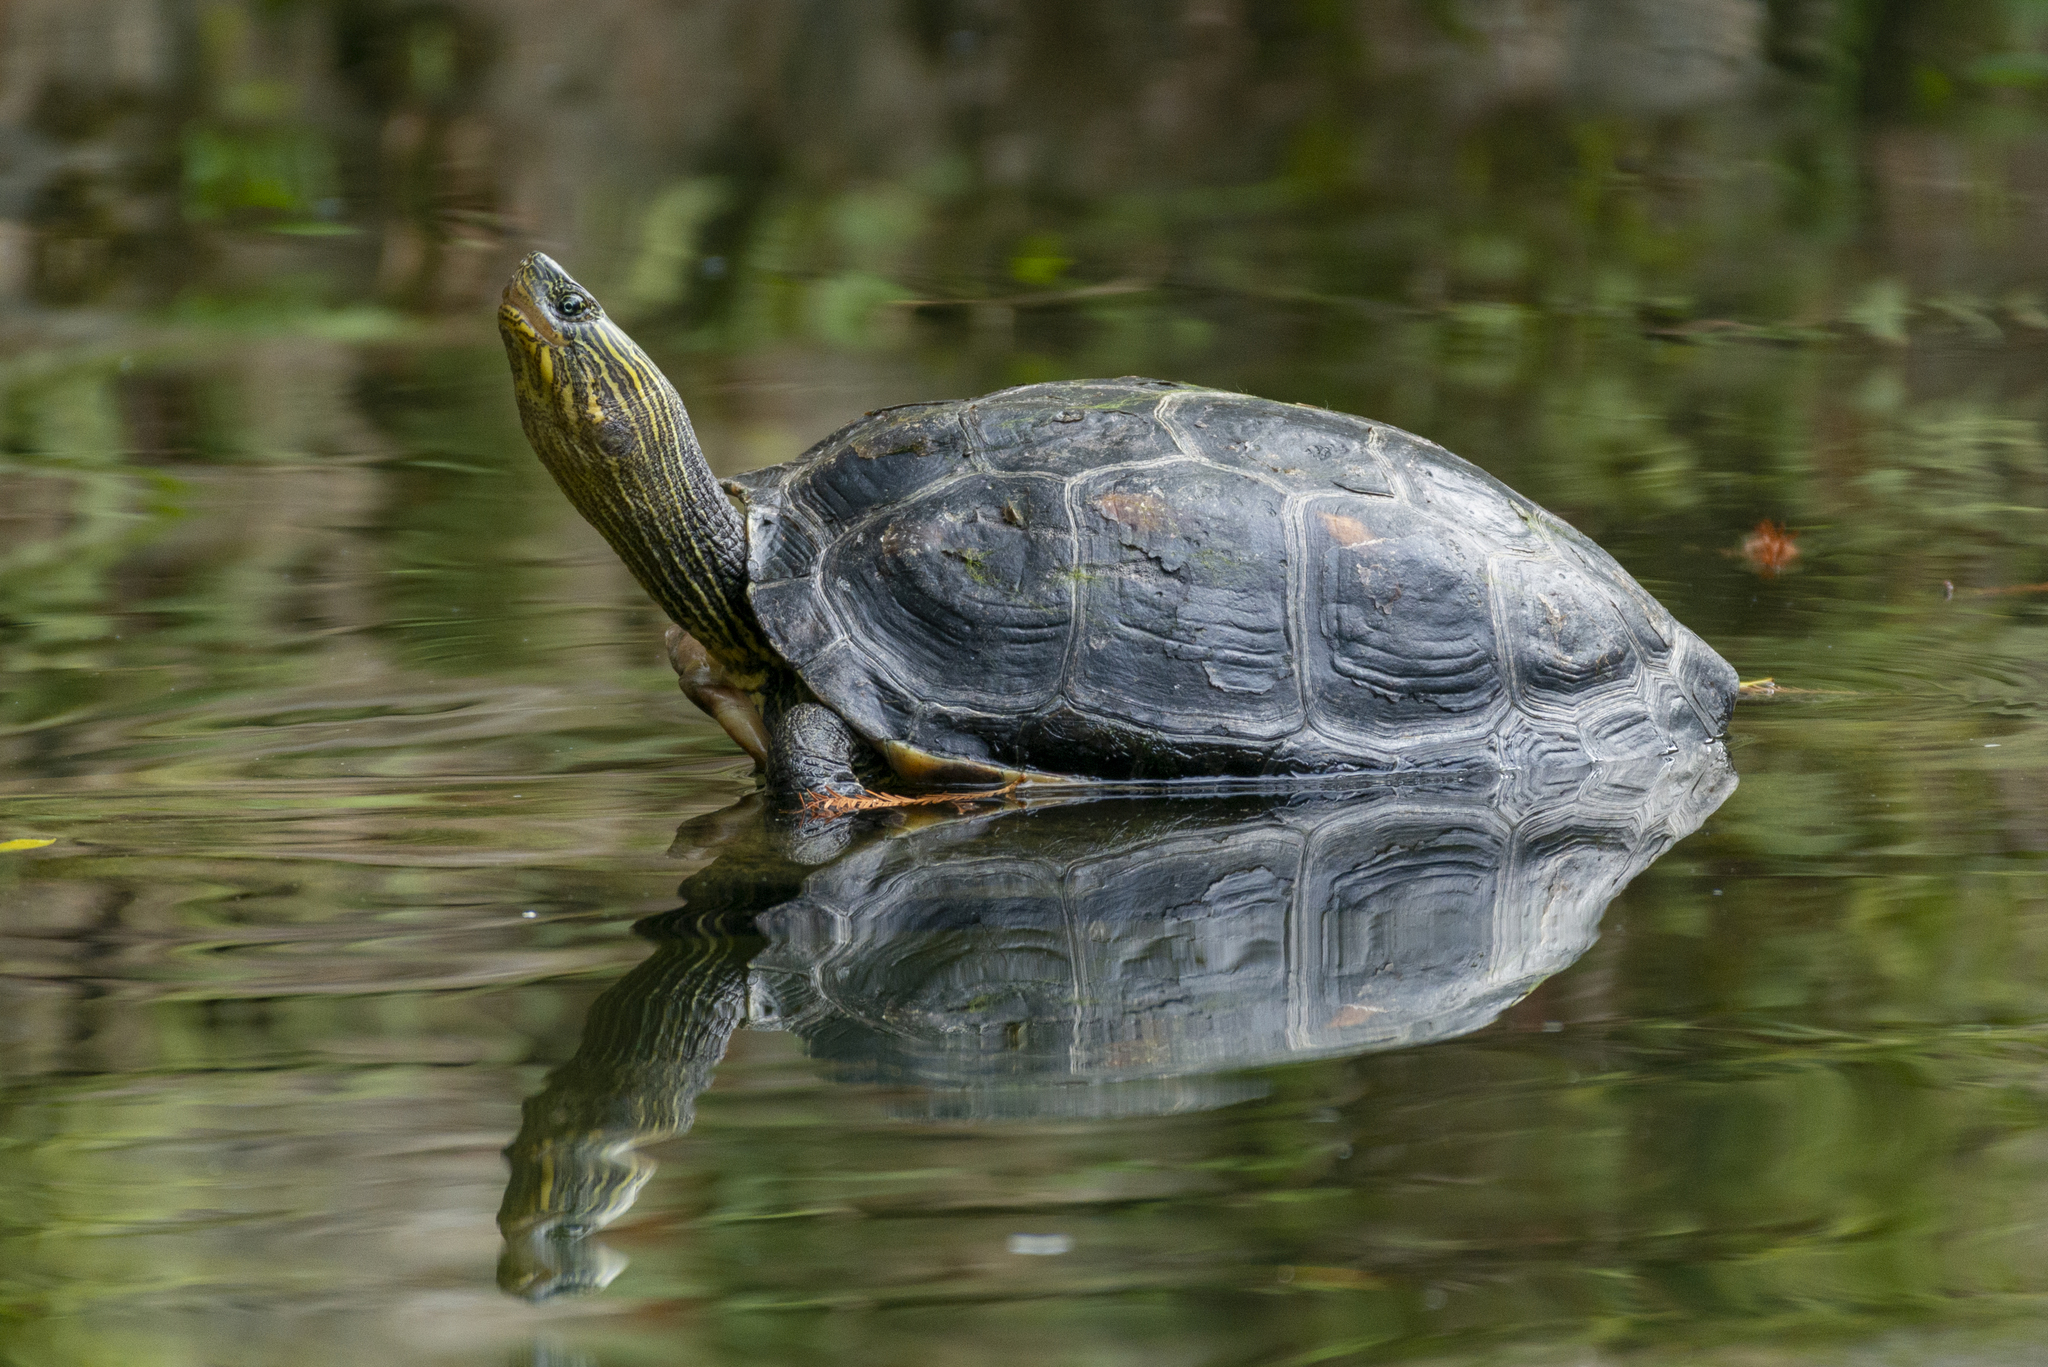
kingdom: Animalia
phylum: Chordata
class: Testudines
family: Geoemydidae
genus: Mauremys
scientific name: Mauremys sinensis
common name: Chinese stripe-necked turtle
